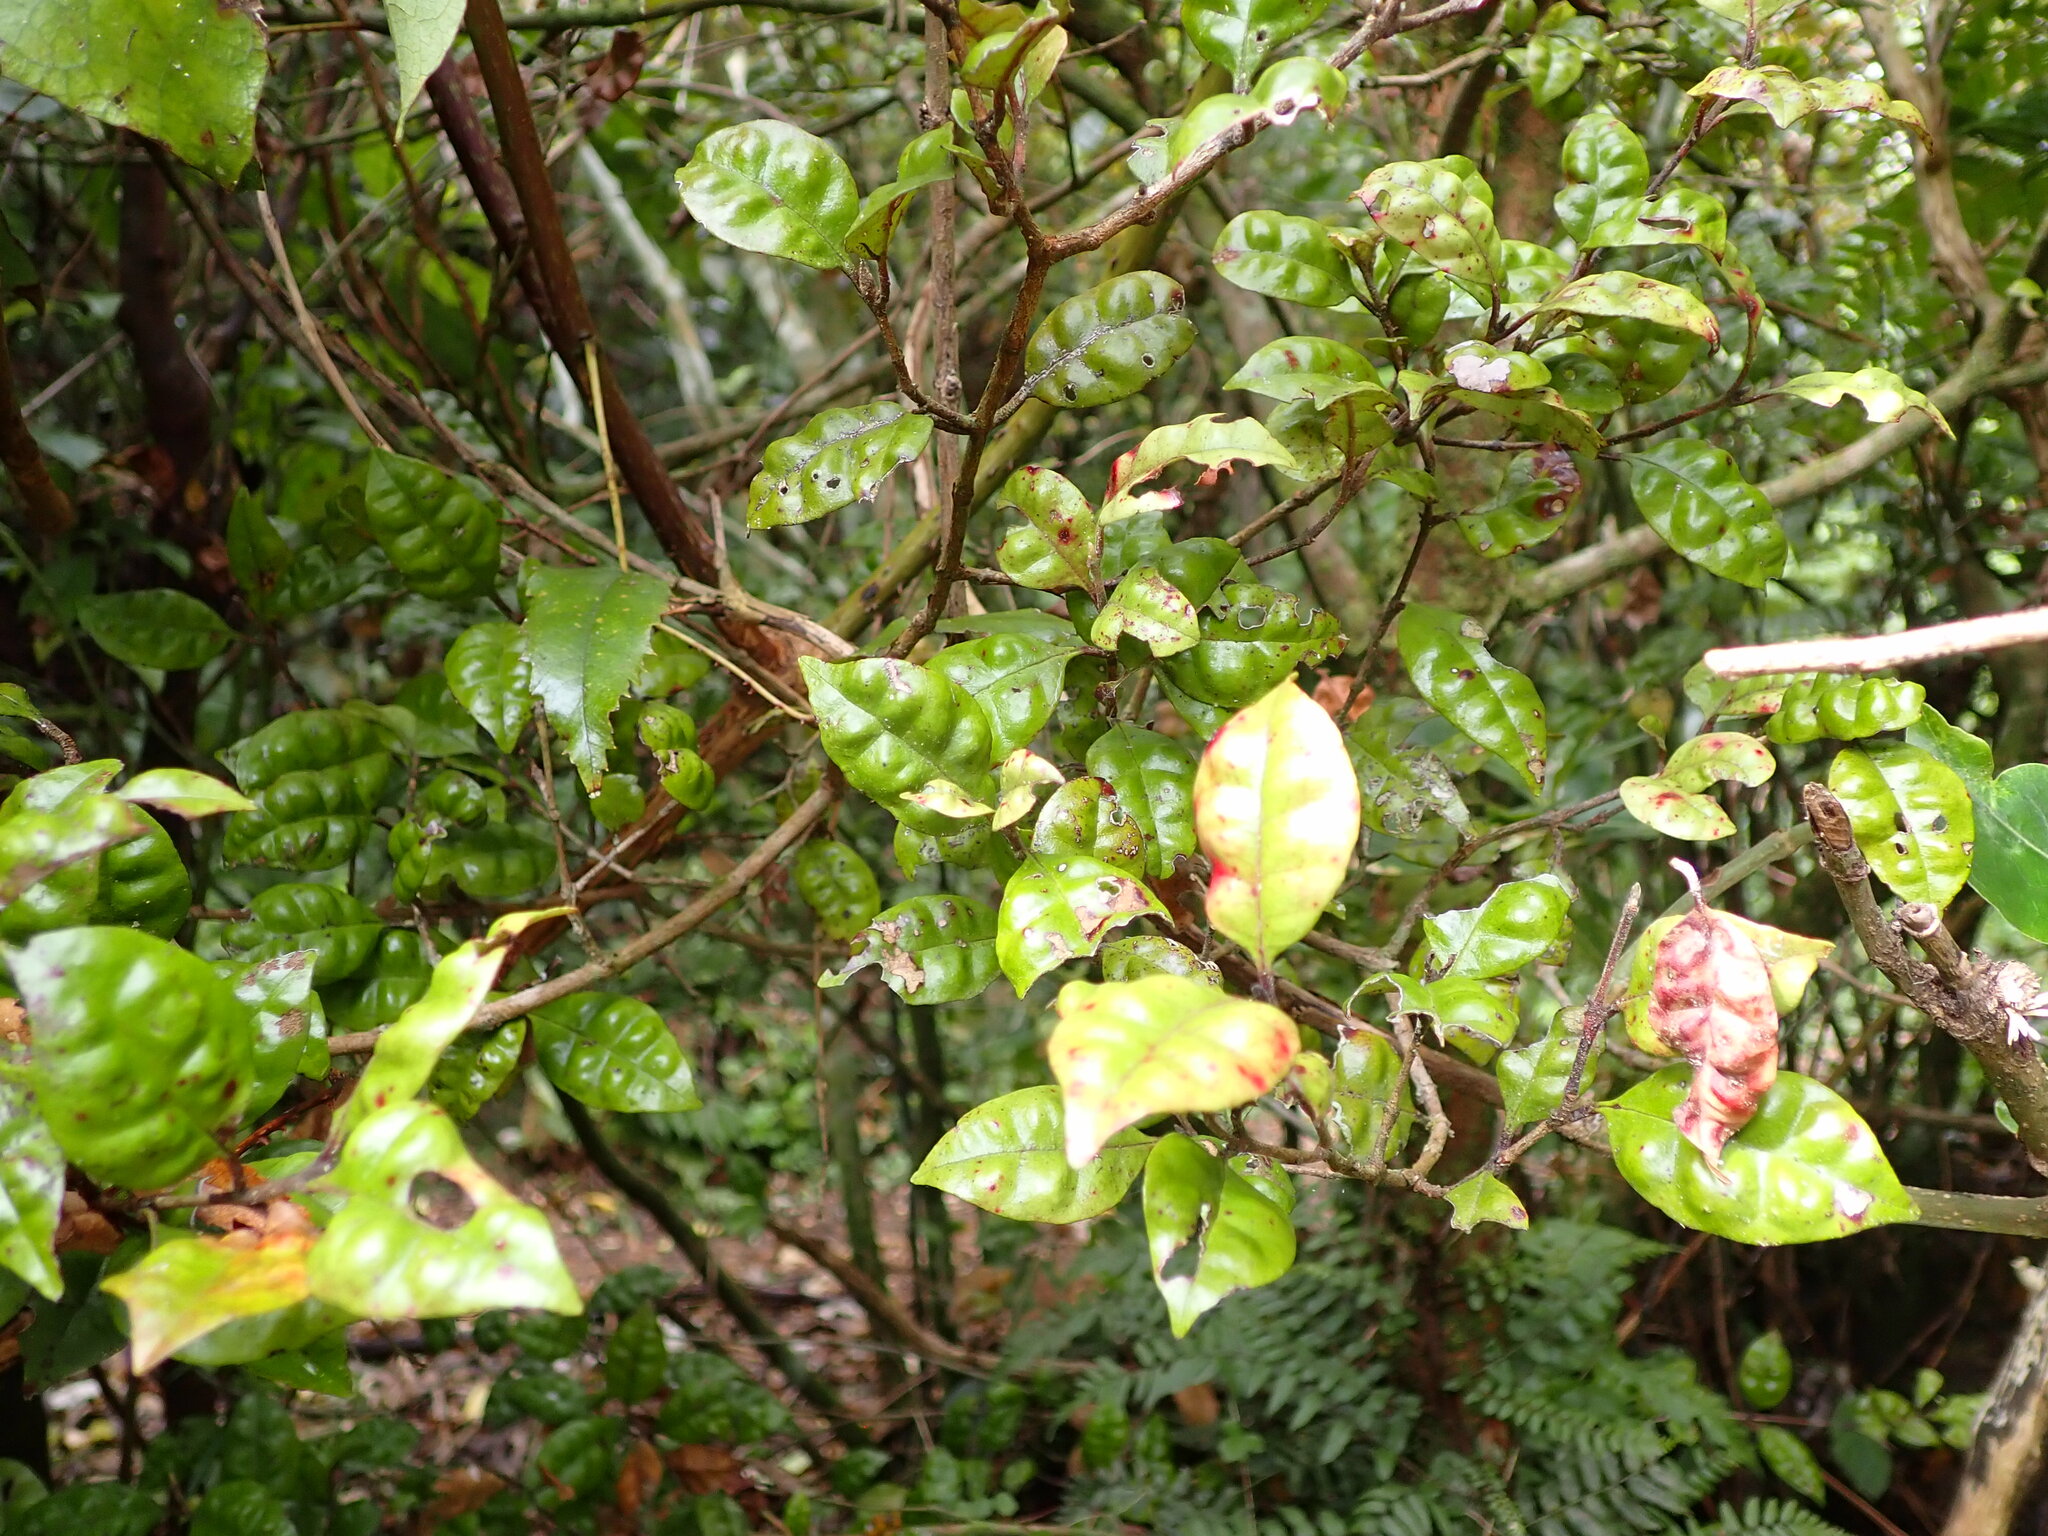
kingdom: Plantae
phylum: Tracheophyta
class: Magnoliopsida
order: Myrtales
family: Myrtaceae
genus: Lophomyrtus
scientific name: Lophomyrtus bullata
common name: Rama rama
